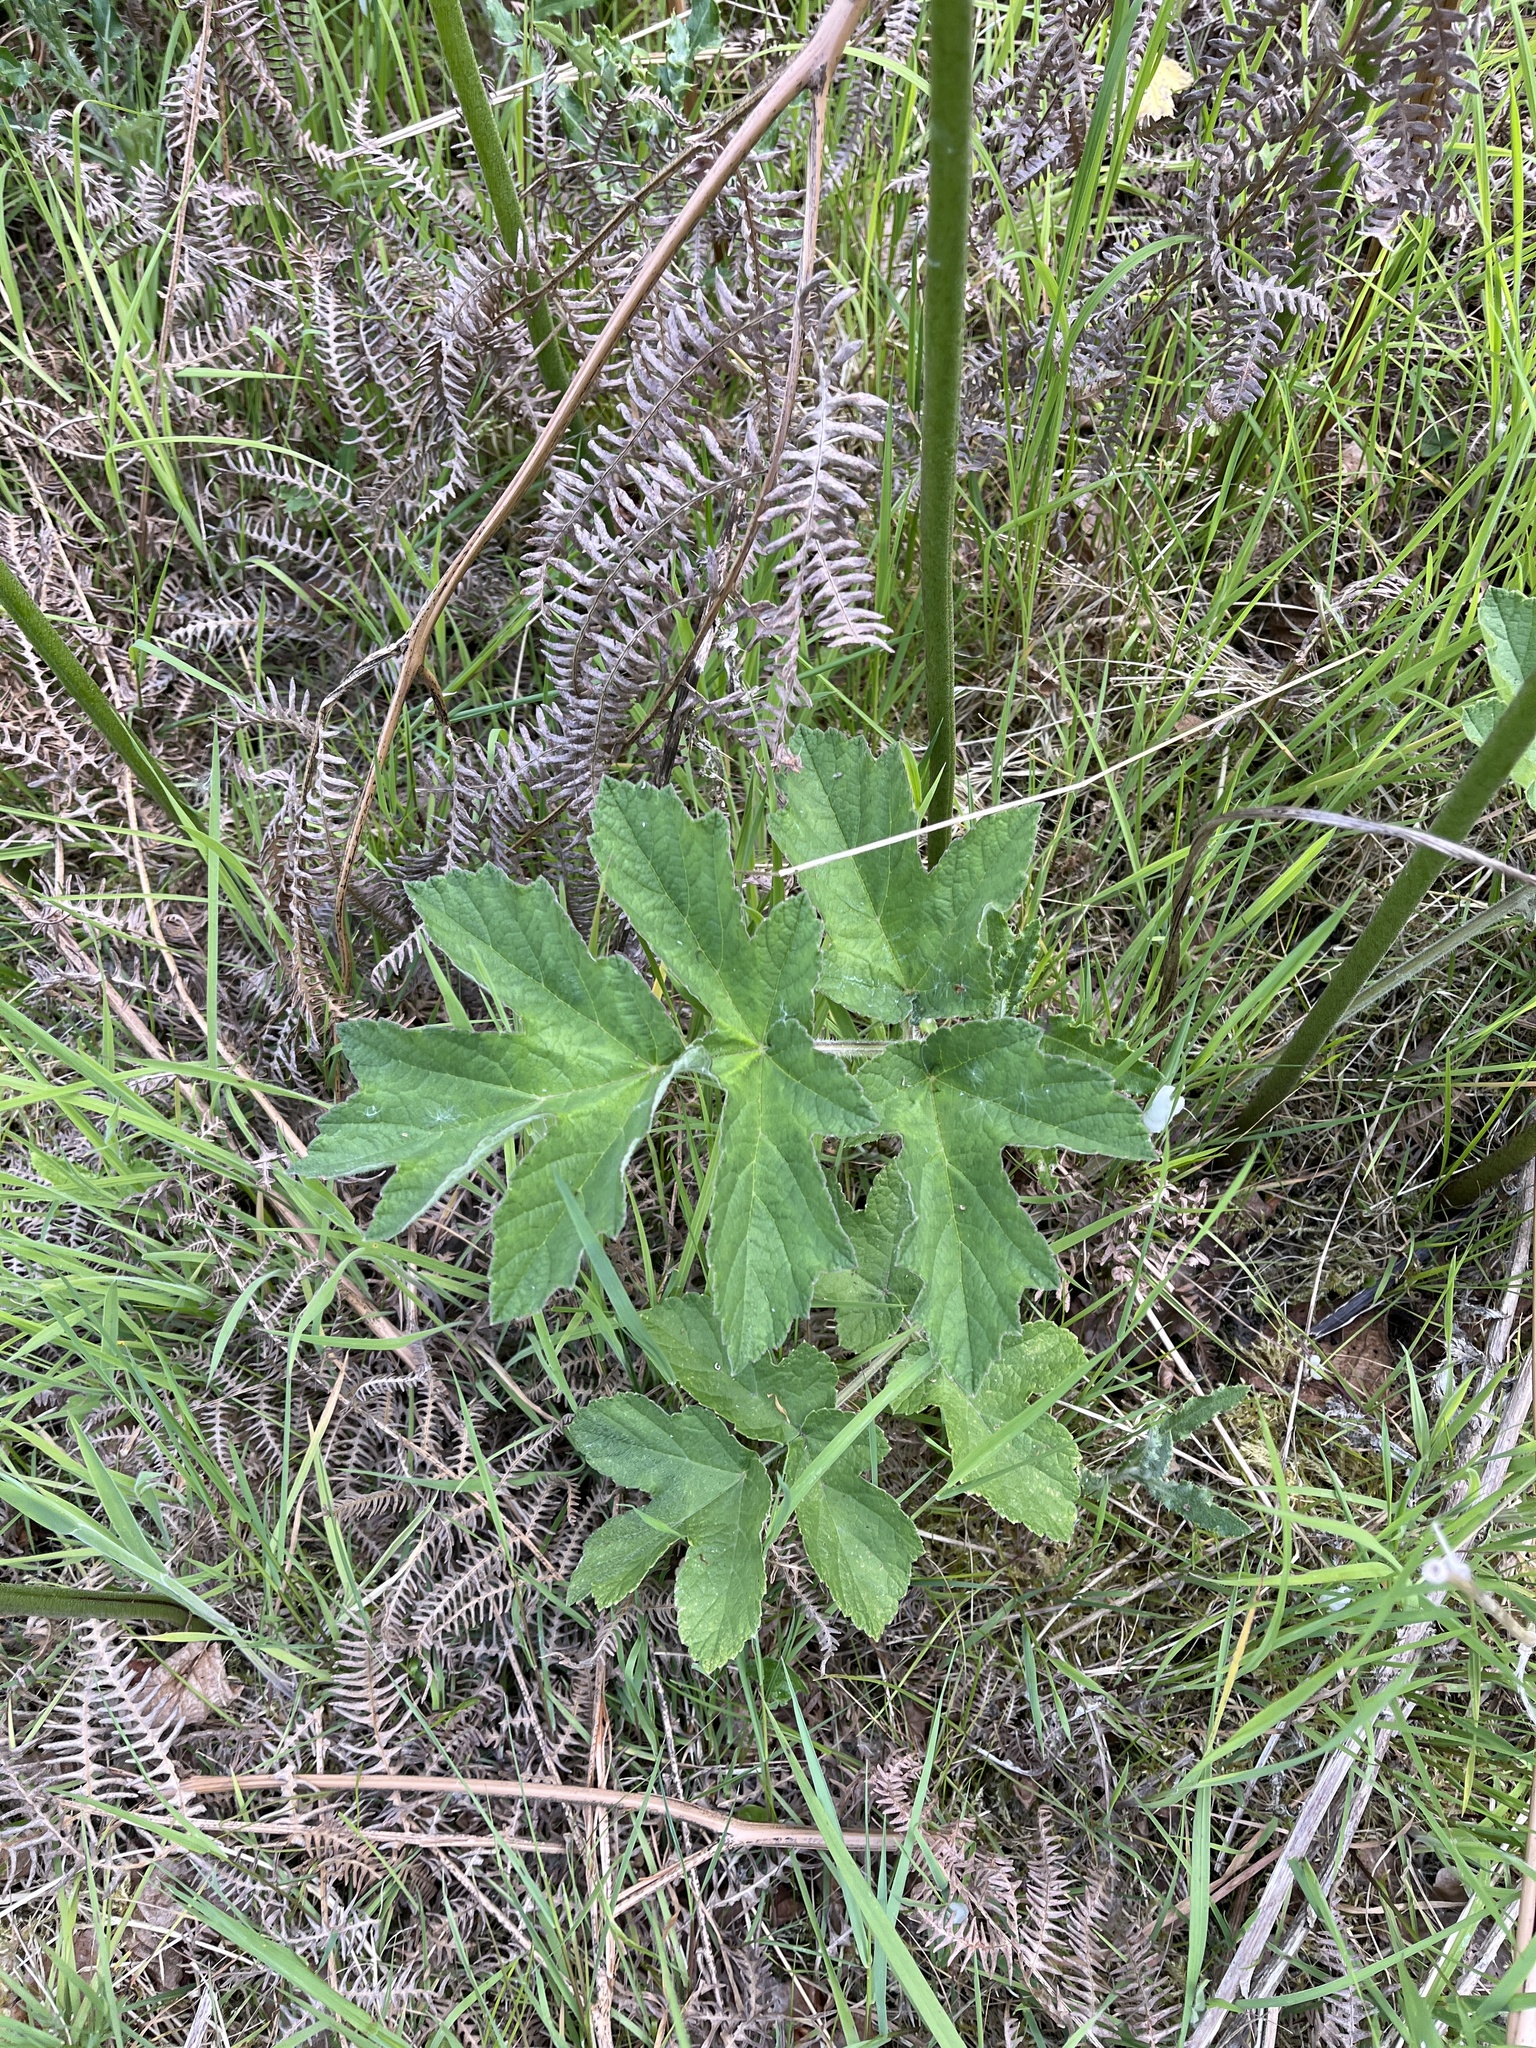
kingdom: Plantae
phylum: Tracheophyta
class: Magnoliopsida
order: Apiales
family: Apiaceae
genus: Heracleum
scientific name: Heracleum sphondylium
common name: Hogweed
